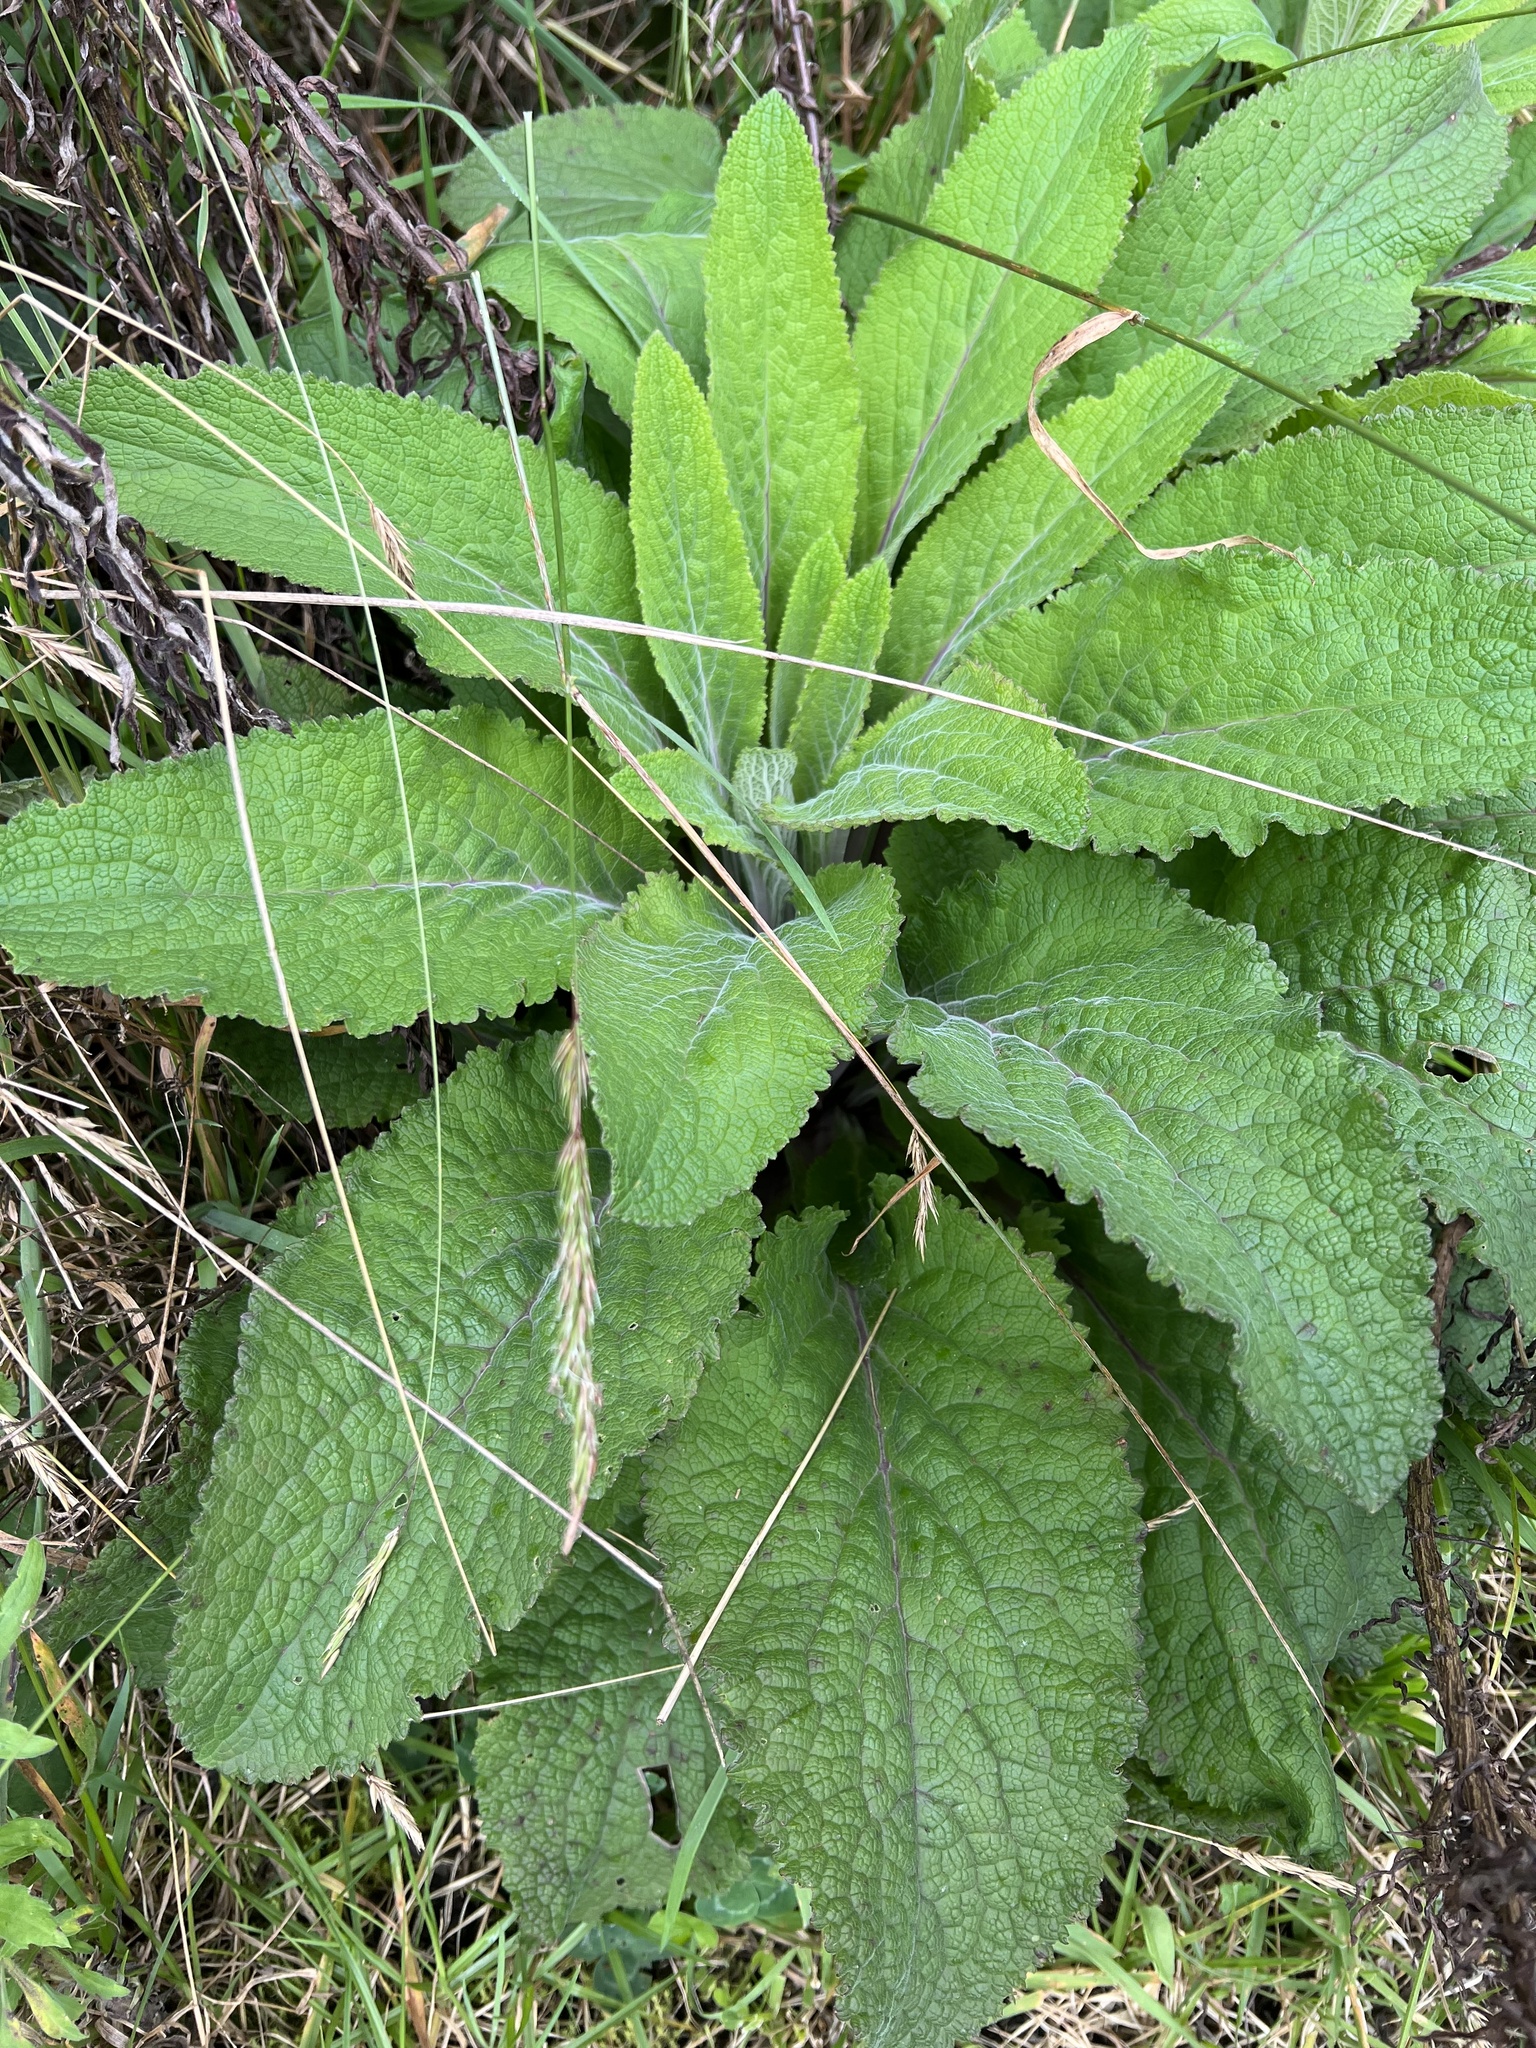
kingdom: Plantae
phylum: Tracheophyta
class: Magnoliopsida
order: Lamiales
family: Plantaginaceae
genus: Digitalis
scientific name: Digitalis purpurea
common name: Foxglove
